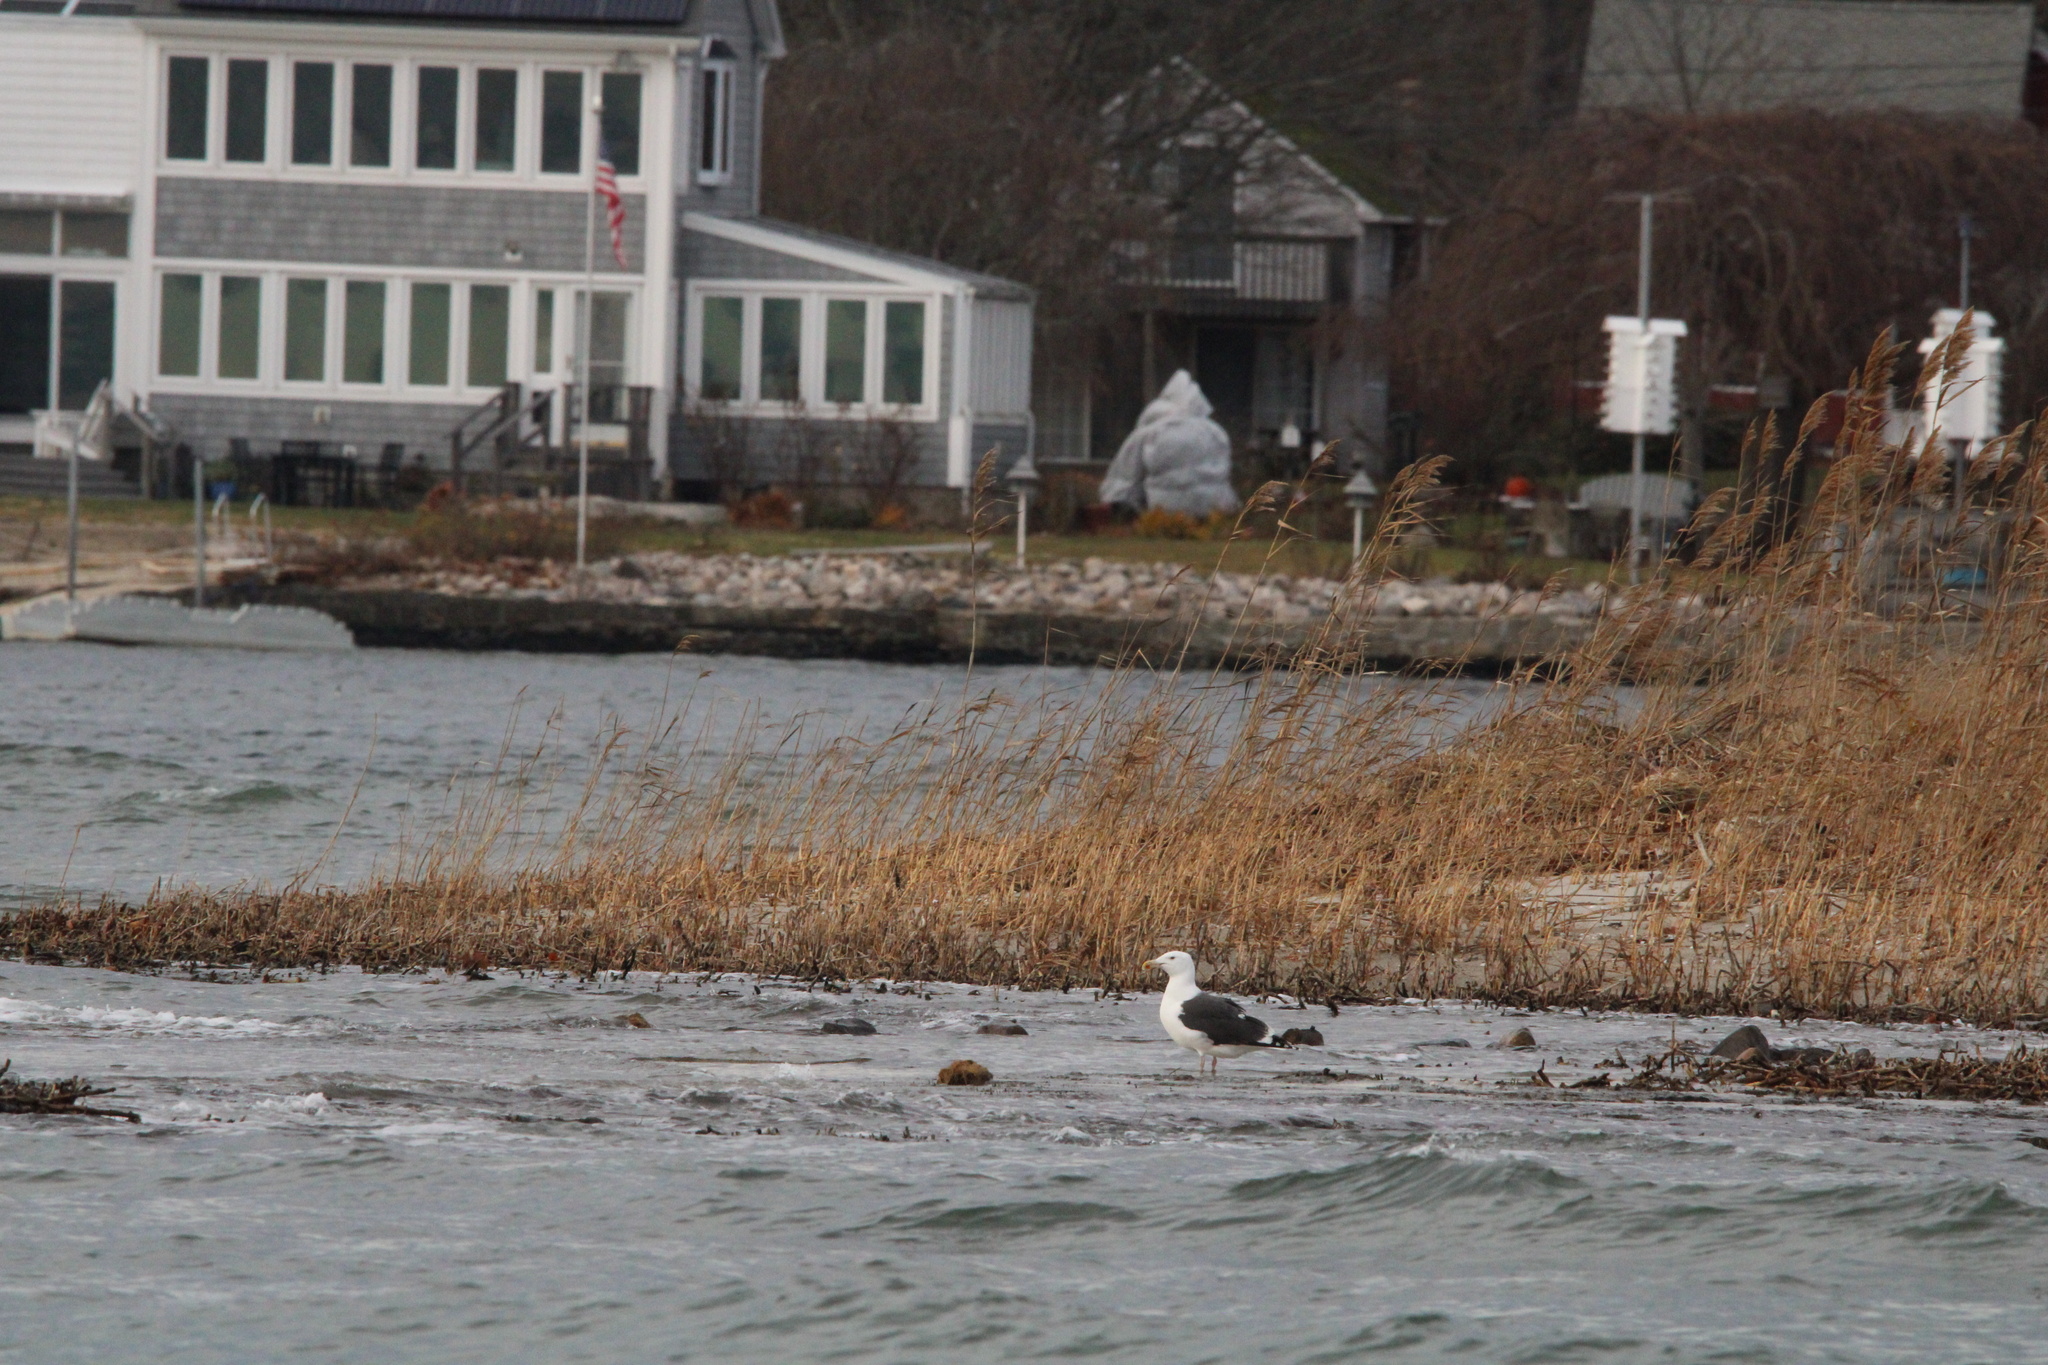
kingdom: Animalia
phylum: Chordata
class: Aves
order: Charadriiformes
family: Laridae
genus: Larus
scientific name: Larus marinus
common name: Great black-backed gull
